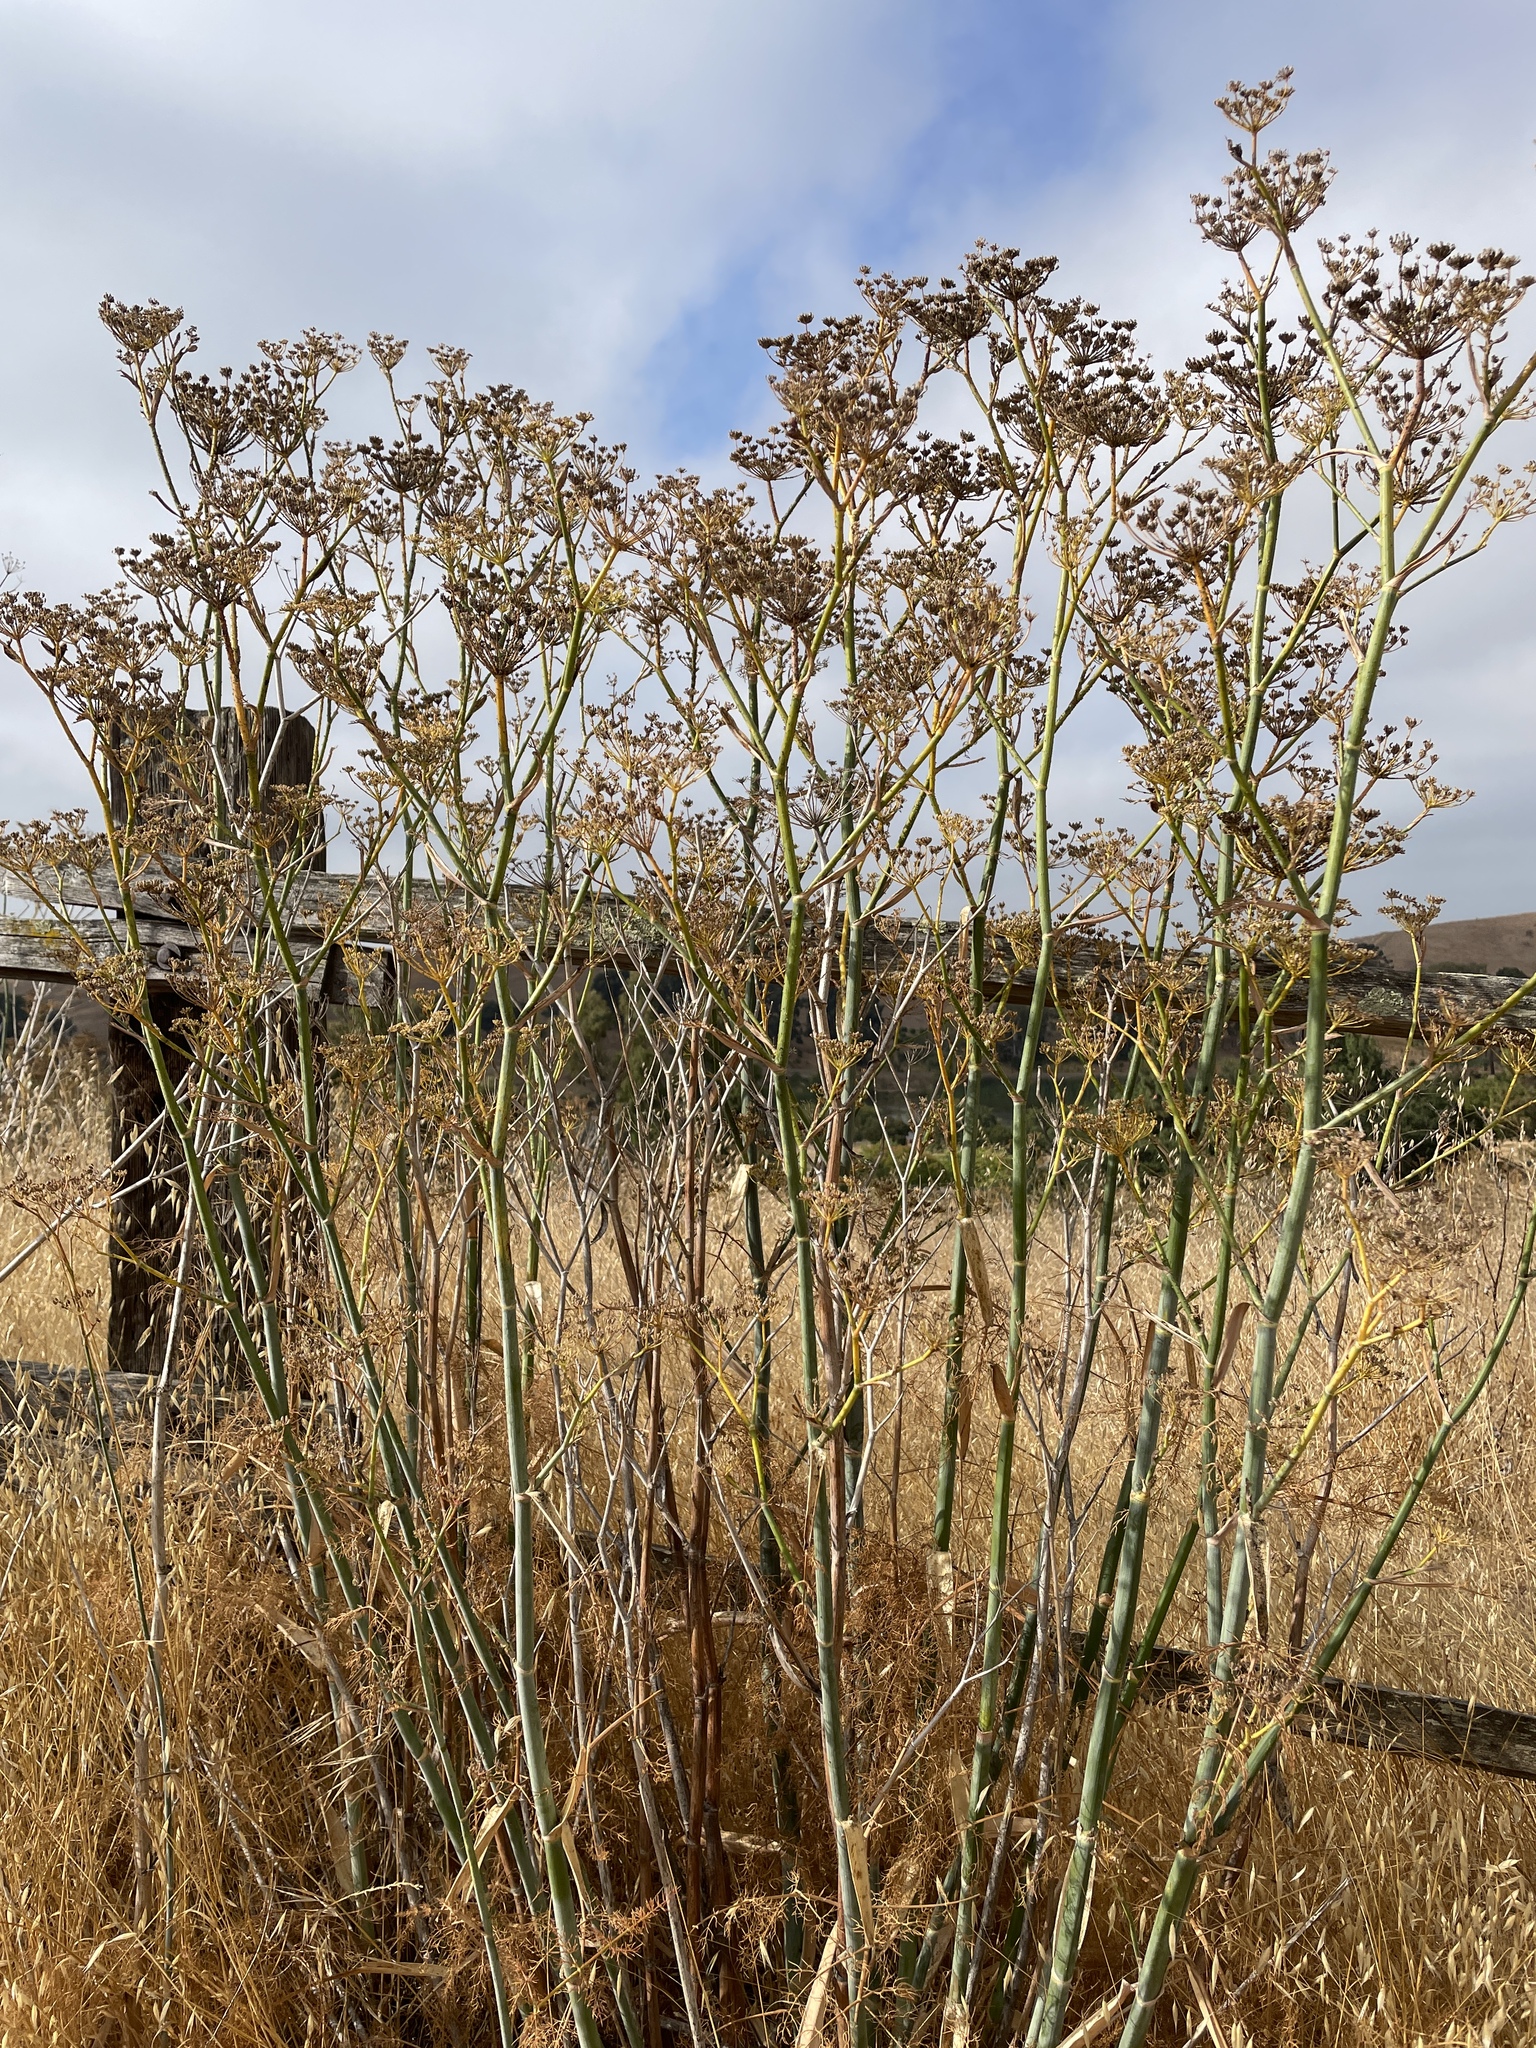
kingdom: Plantae
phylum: Tracheophyta
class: Magnoliopsida
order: Apiales
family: Apiaceae
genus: Foeniculum
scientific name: Foeniculum vulgare
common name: Fennel
